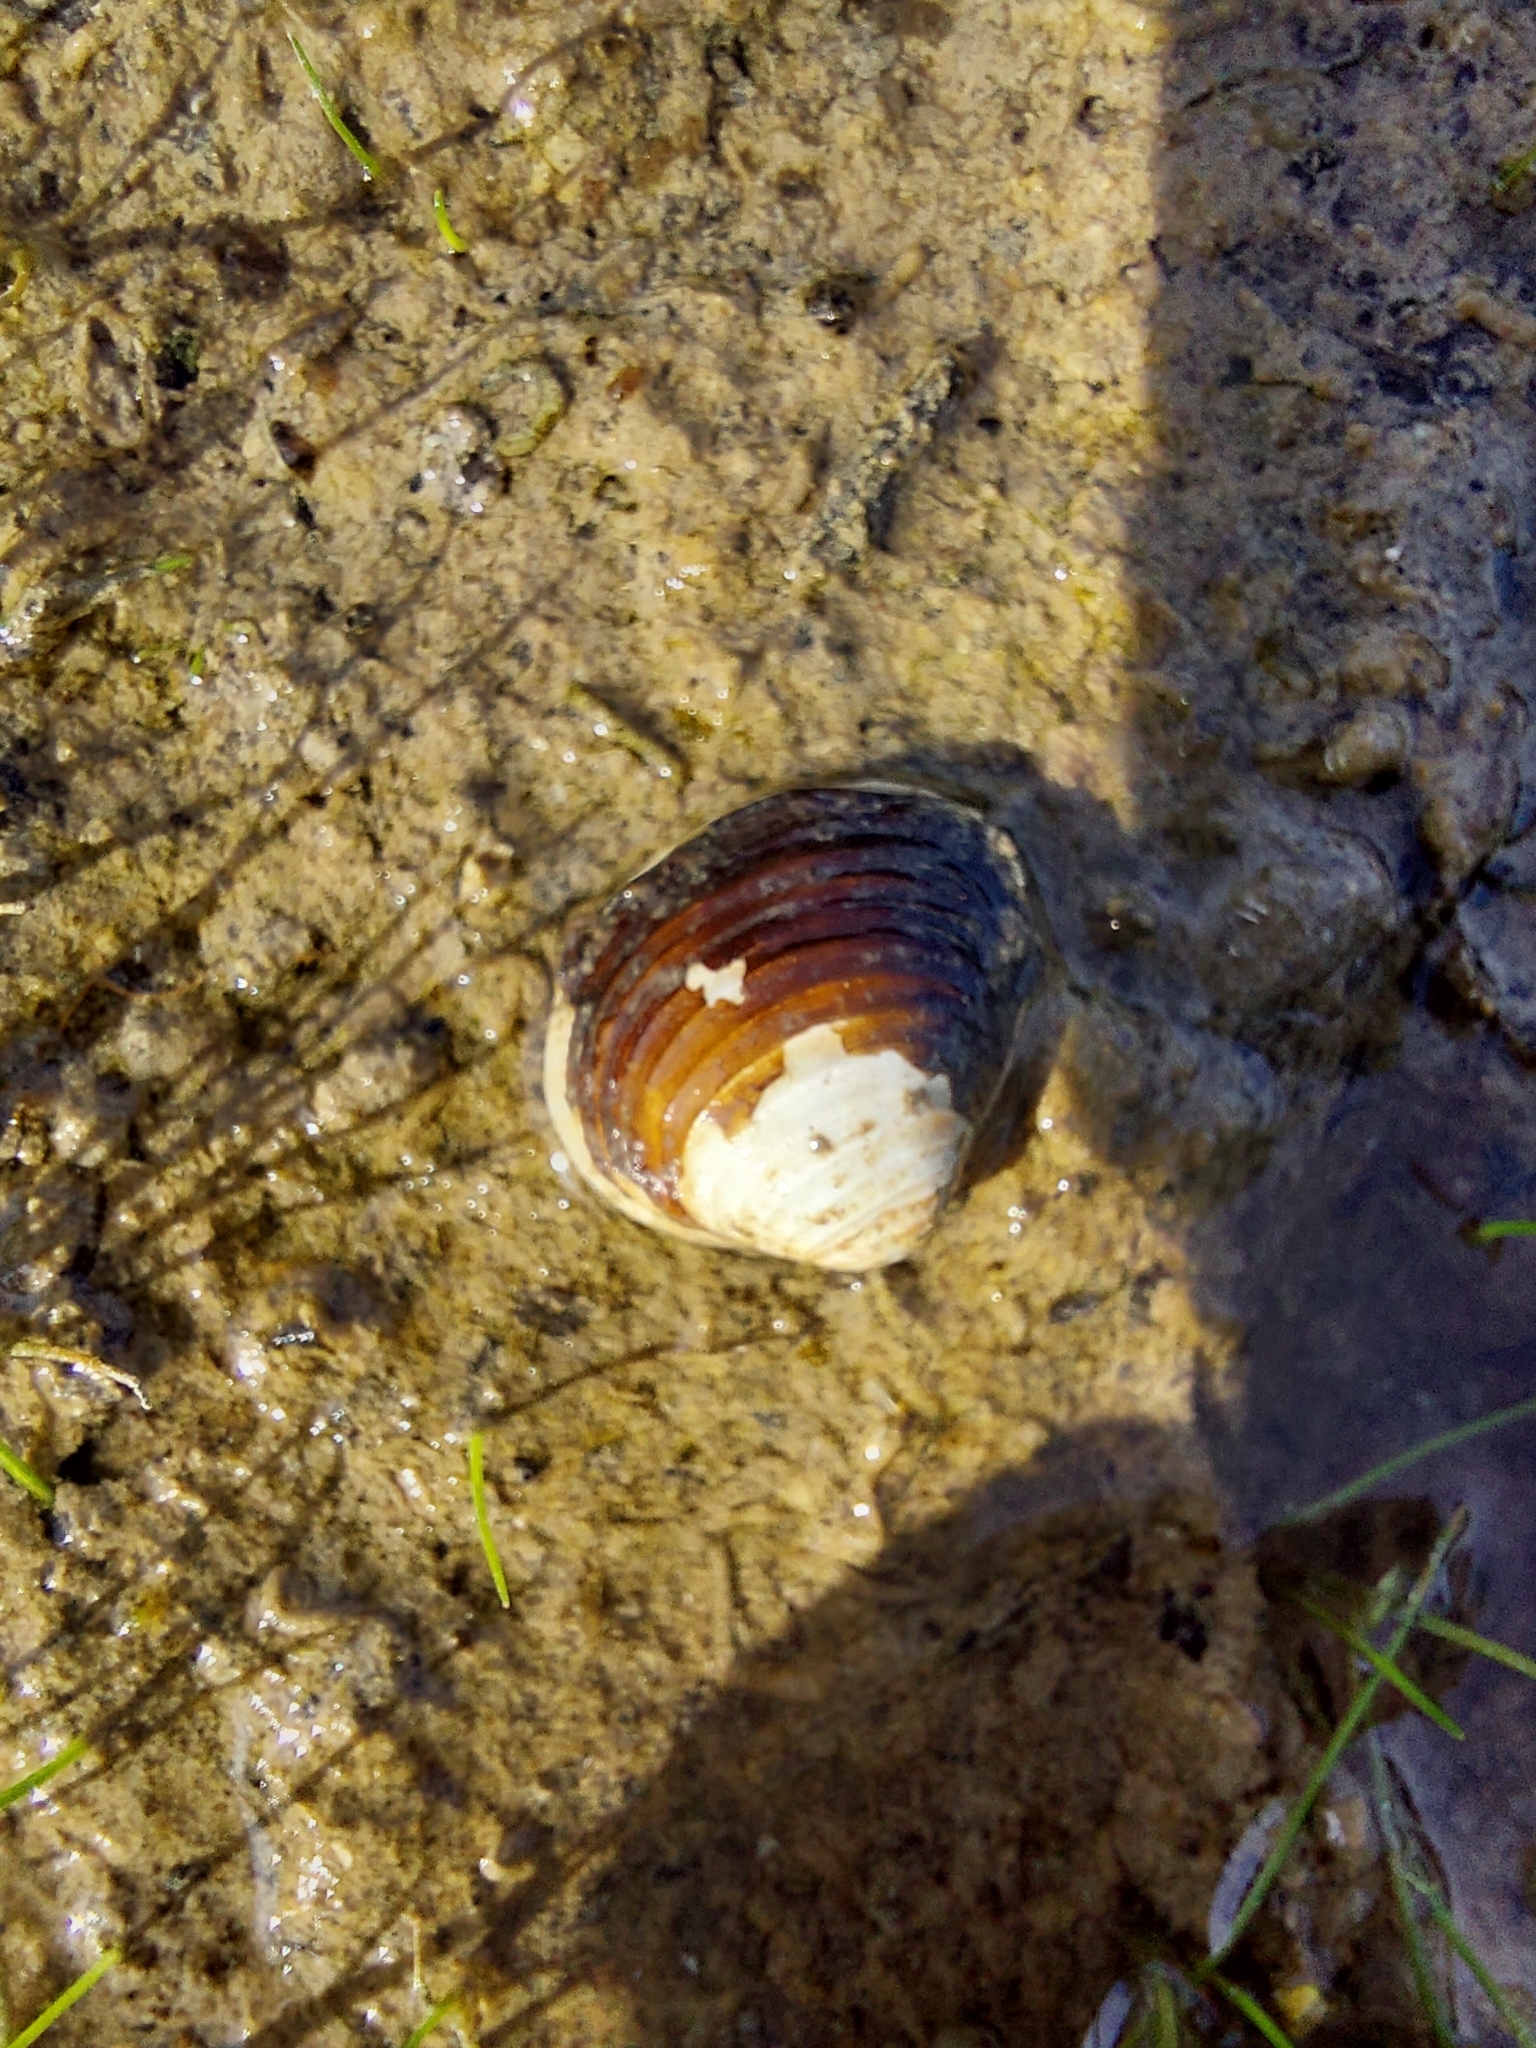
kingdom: Animalia
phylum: Mollusca
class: Bivalvia
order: Venerida
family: Cyrenidae
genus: Corbicula
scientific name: Corbicula fluminea
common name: Asian clam
